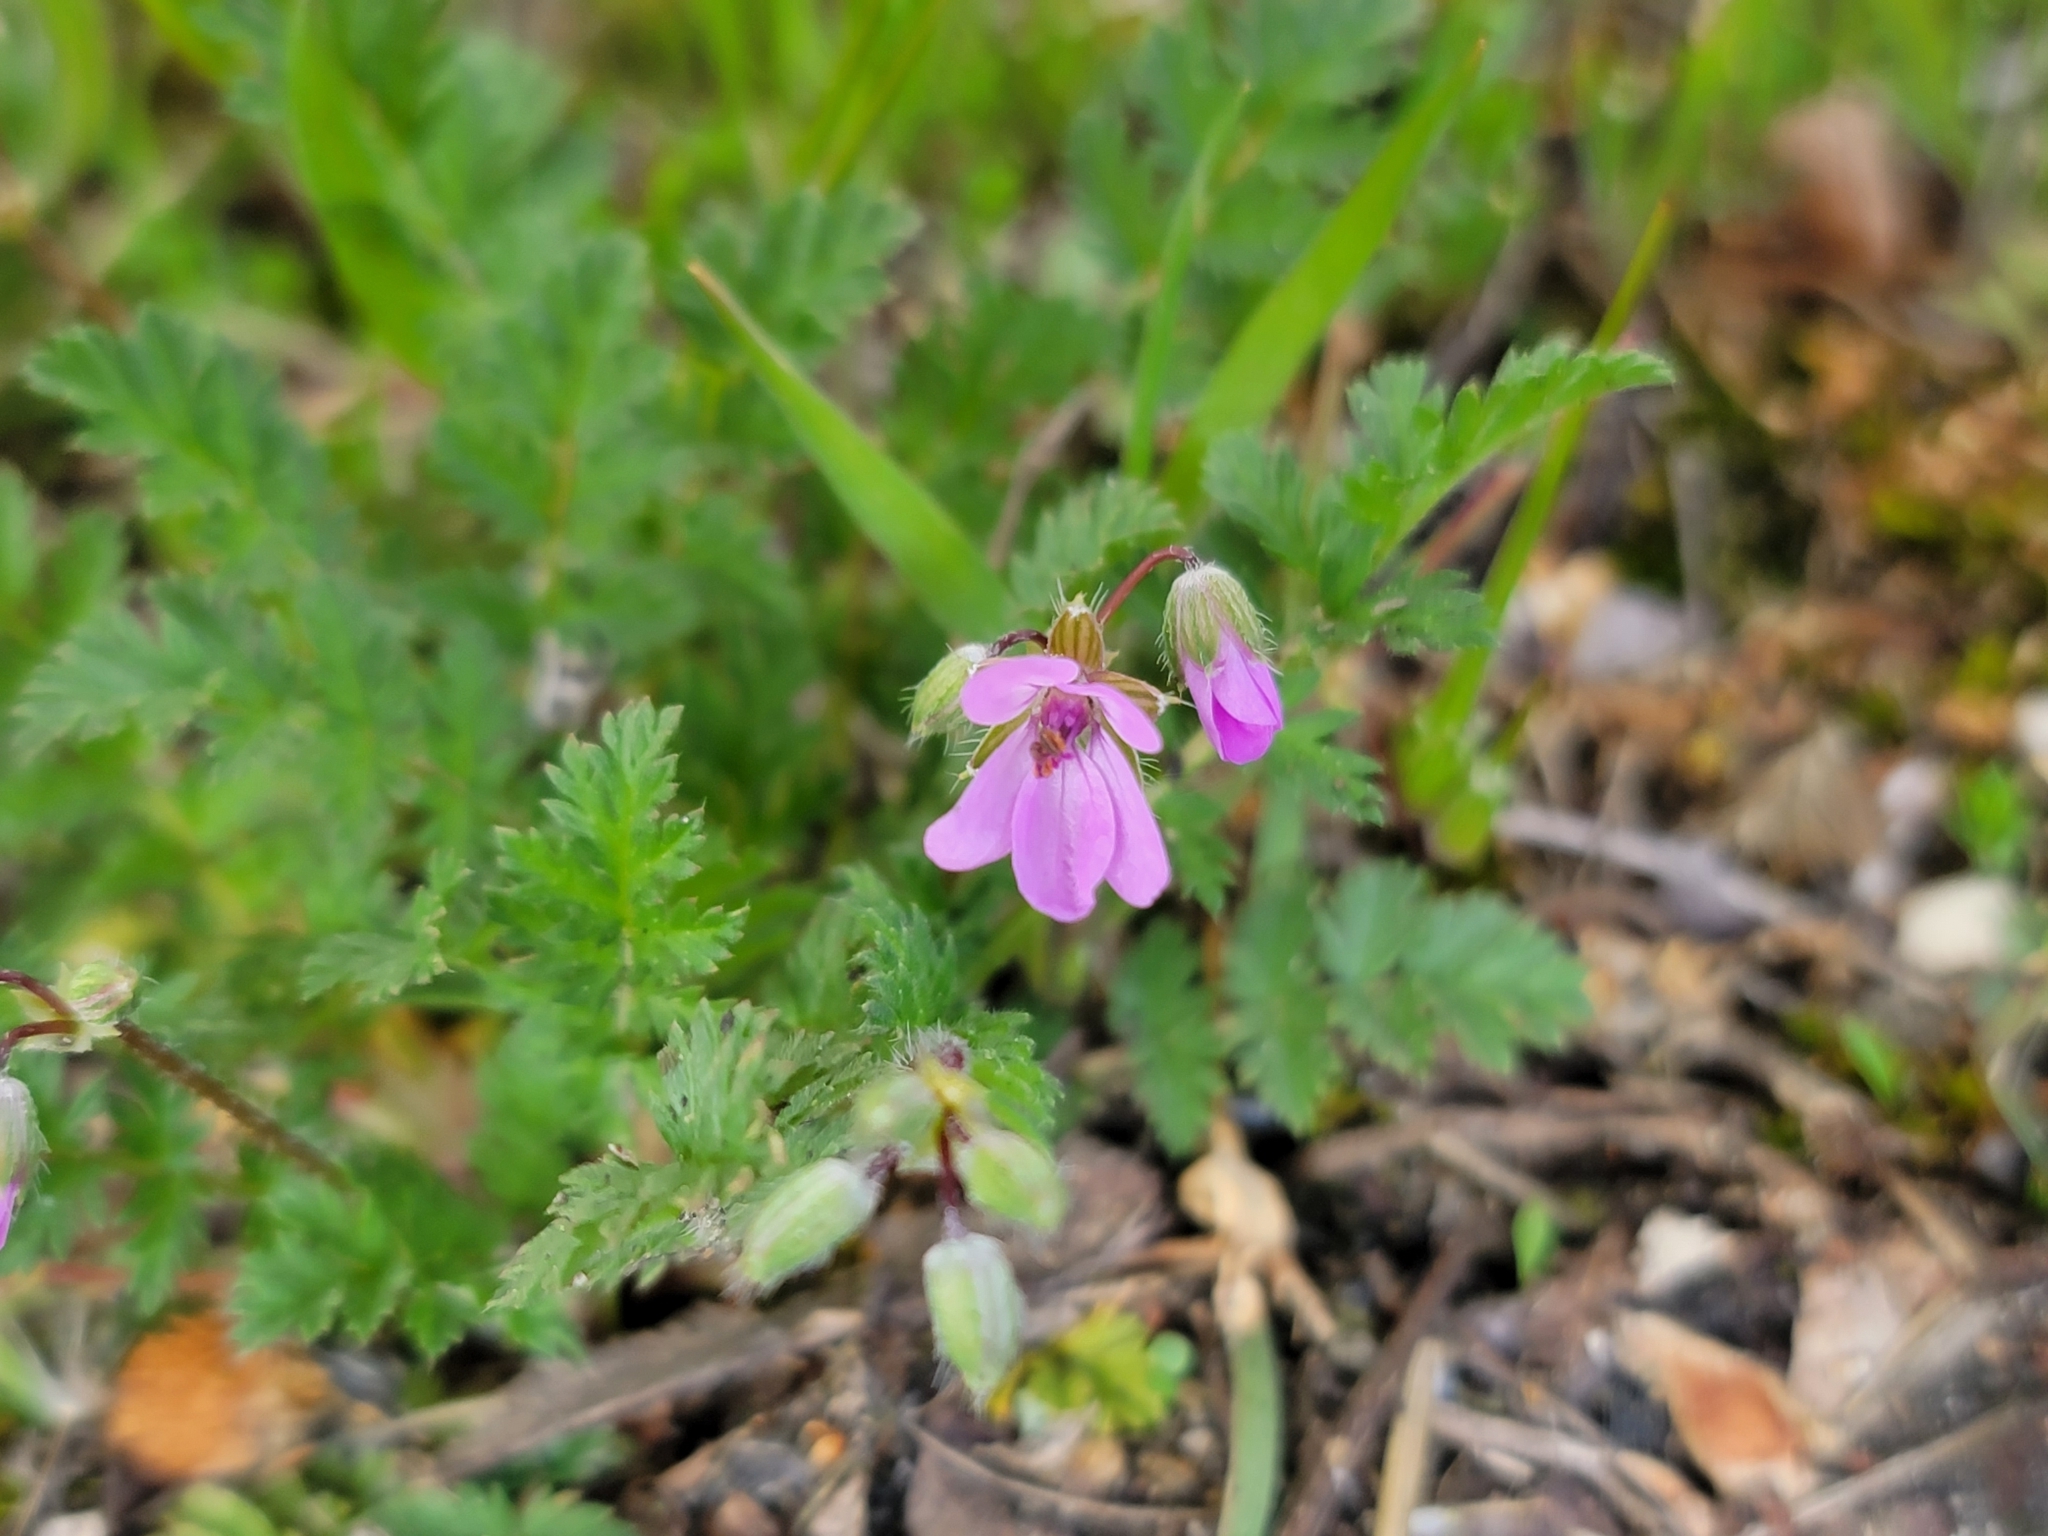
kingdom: Plantae
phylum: Tracheophyta
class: Magnoliopsida
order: Geraniales
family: Geraniaceae
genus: Erodium
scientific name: Erodium cicutarium
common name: Common stork's-bill
